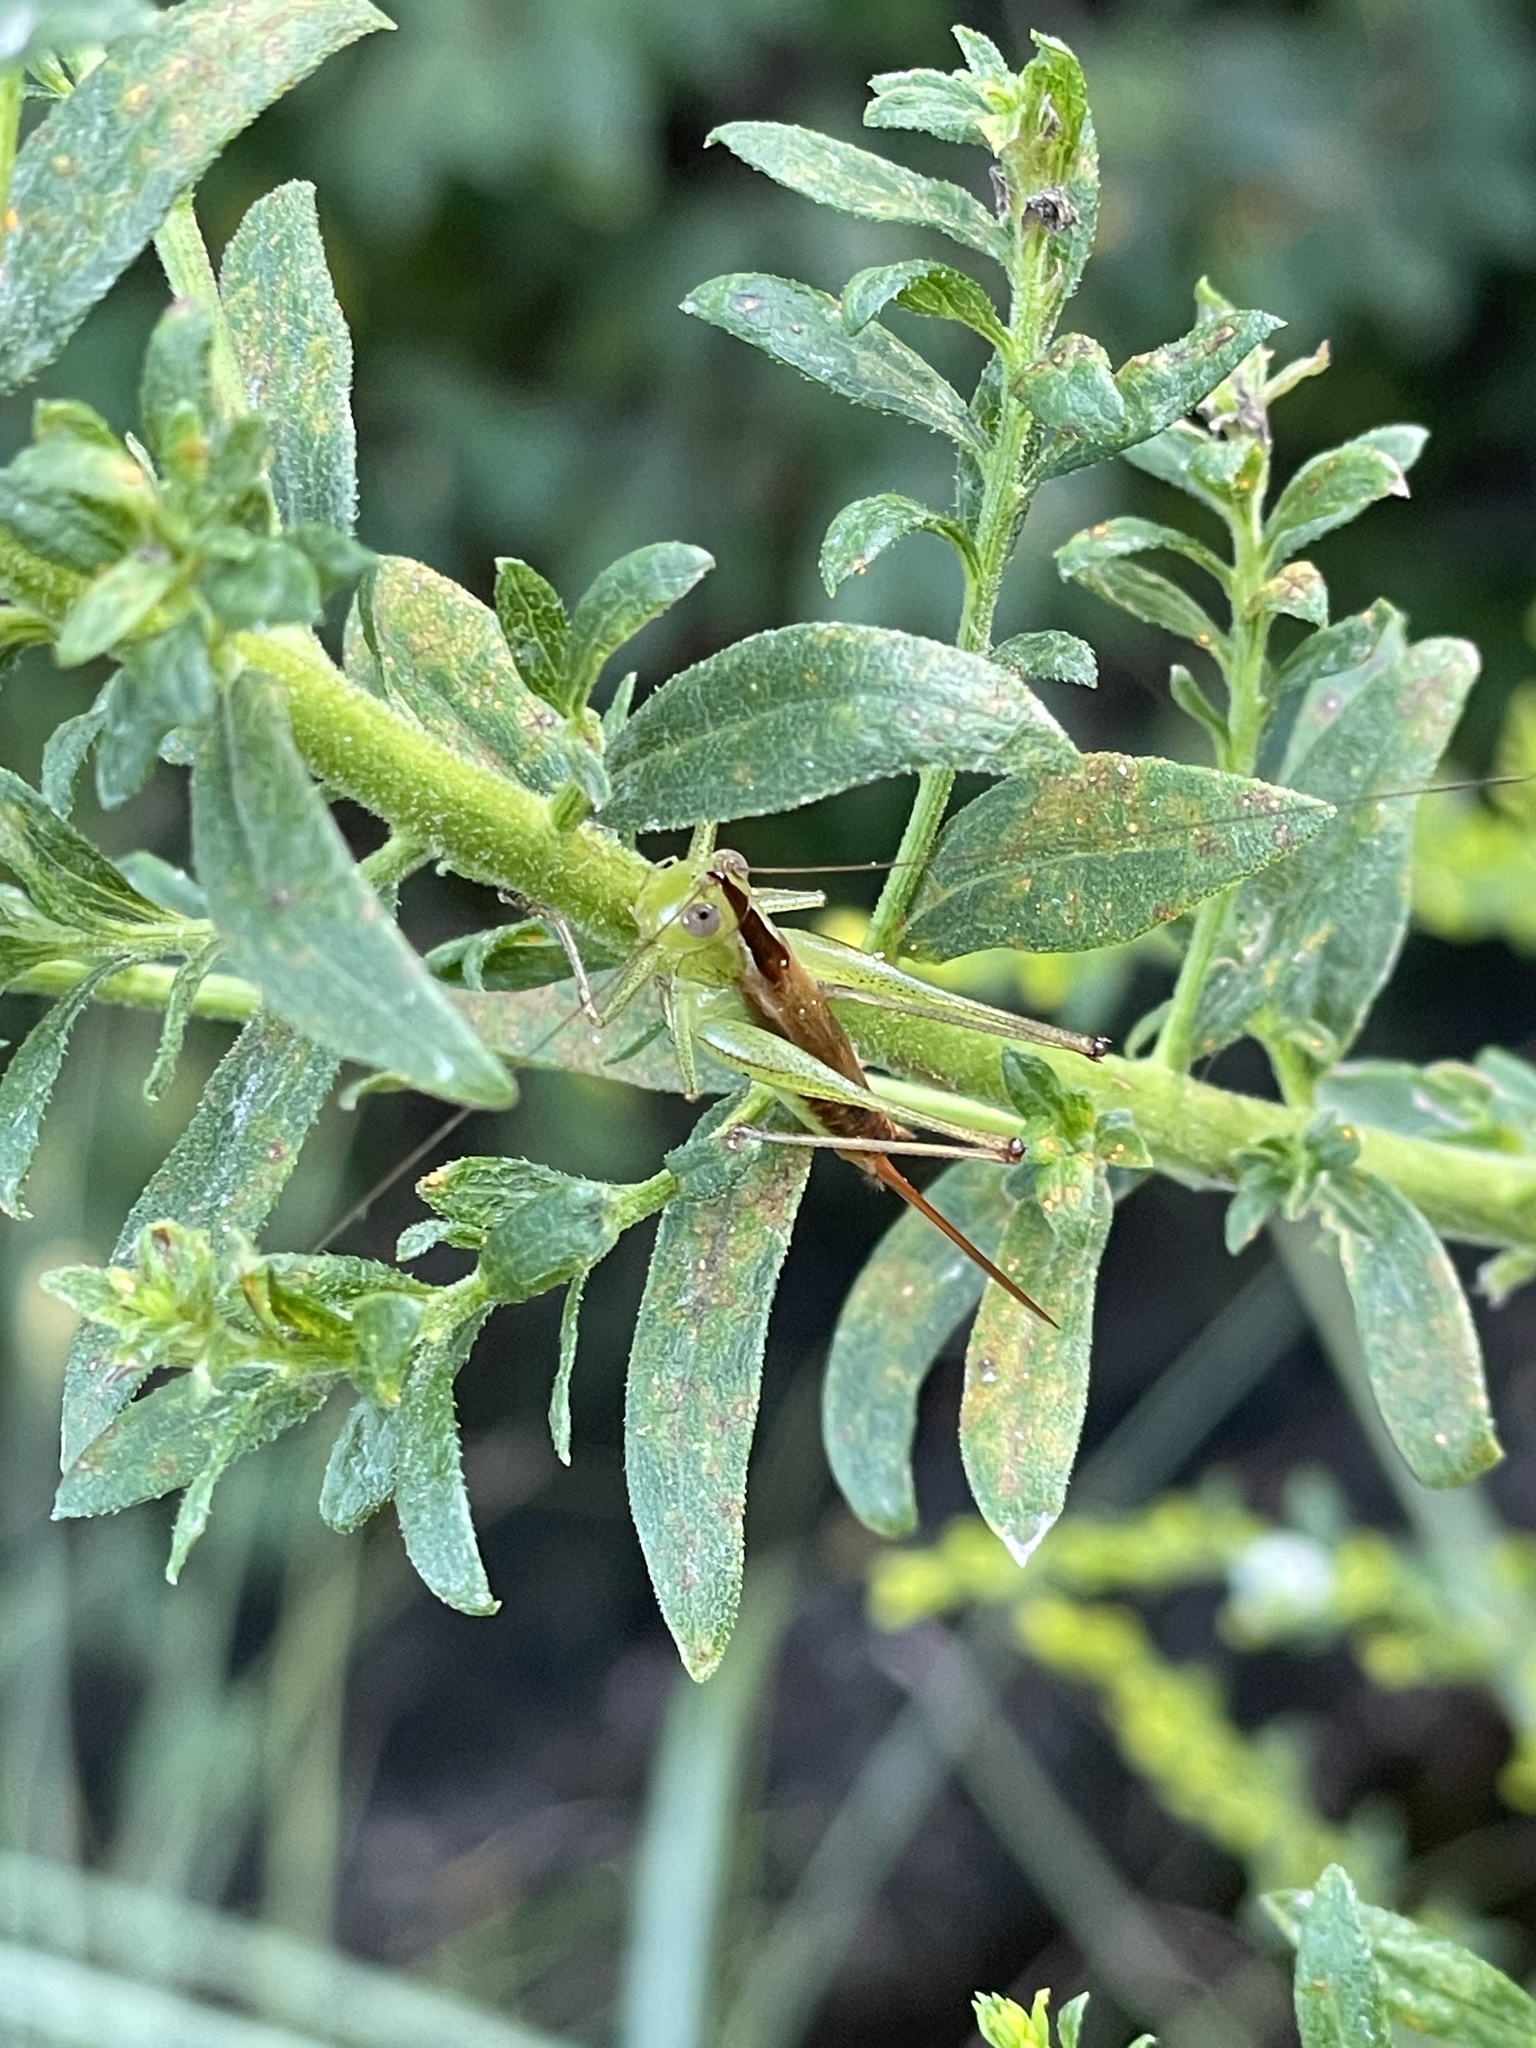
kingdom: Animalia
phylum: Arthropoda
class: Insecta
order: Orthoptera
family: Tettigoniidae
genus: Conocephalus
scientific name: Conocephalus brevipennis
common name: Short-winged meadow katydid
